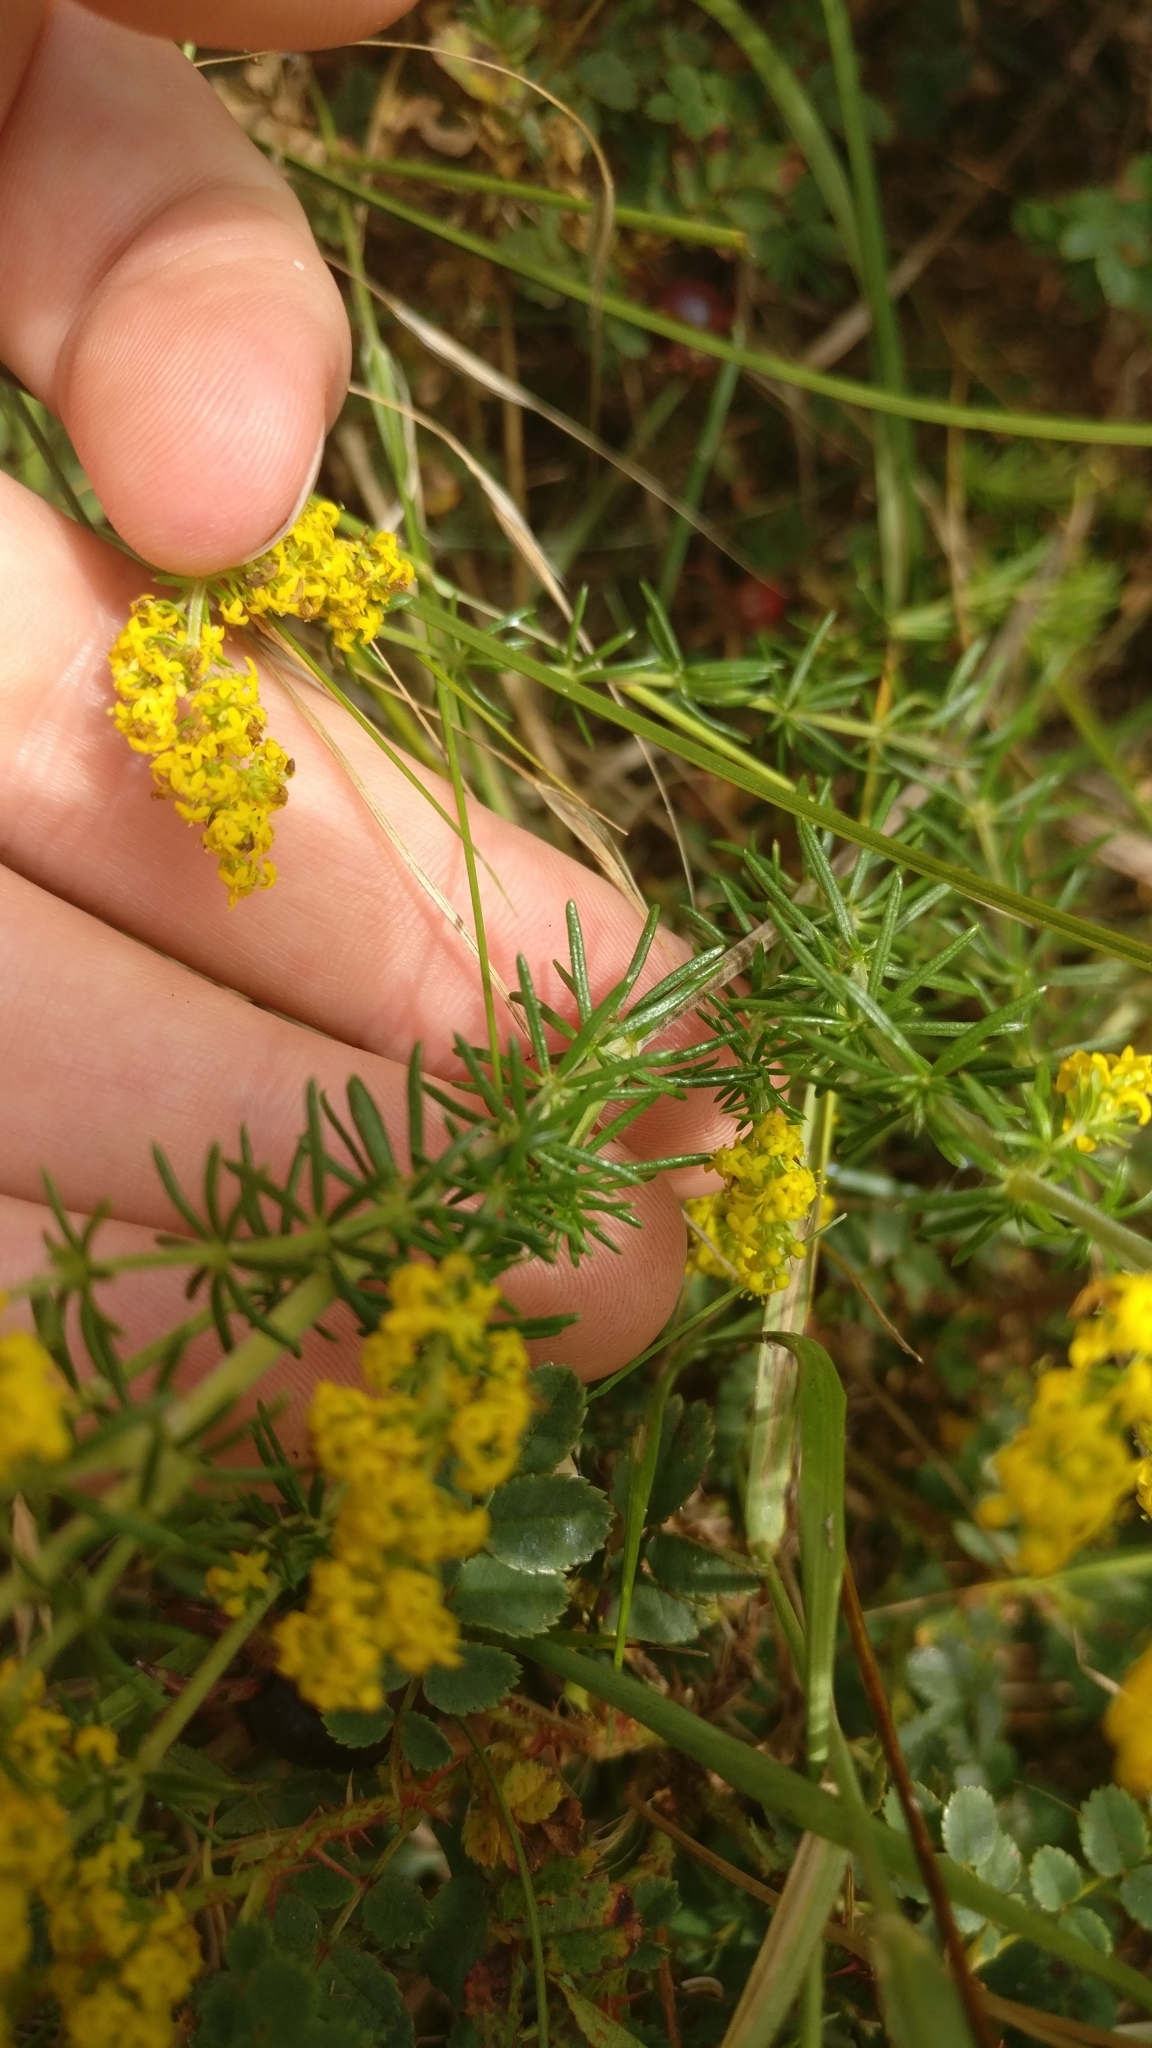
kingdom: Plantae
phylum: Tracheophyta
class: Magnoliopsida
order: Gentianales
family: Rubiaceae
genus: Galium
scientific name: Galium verum
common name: Lady's bedstraw
